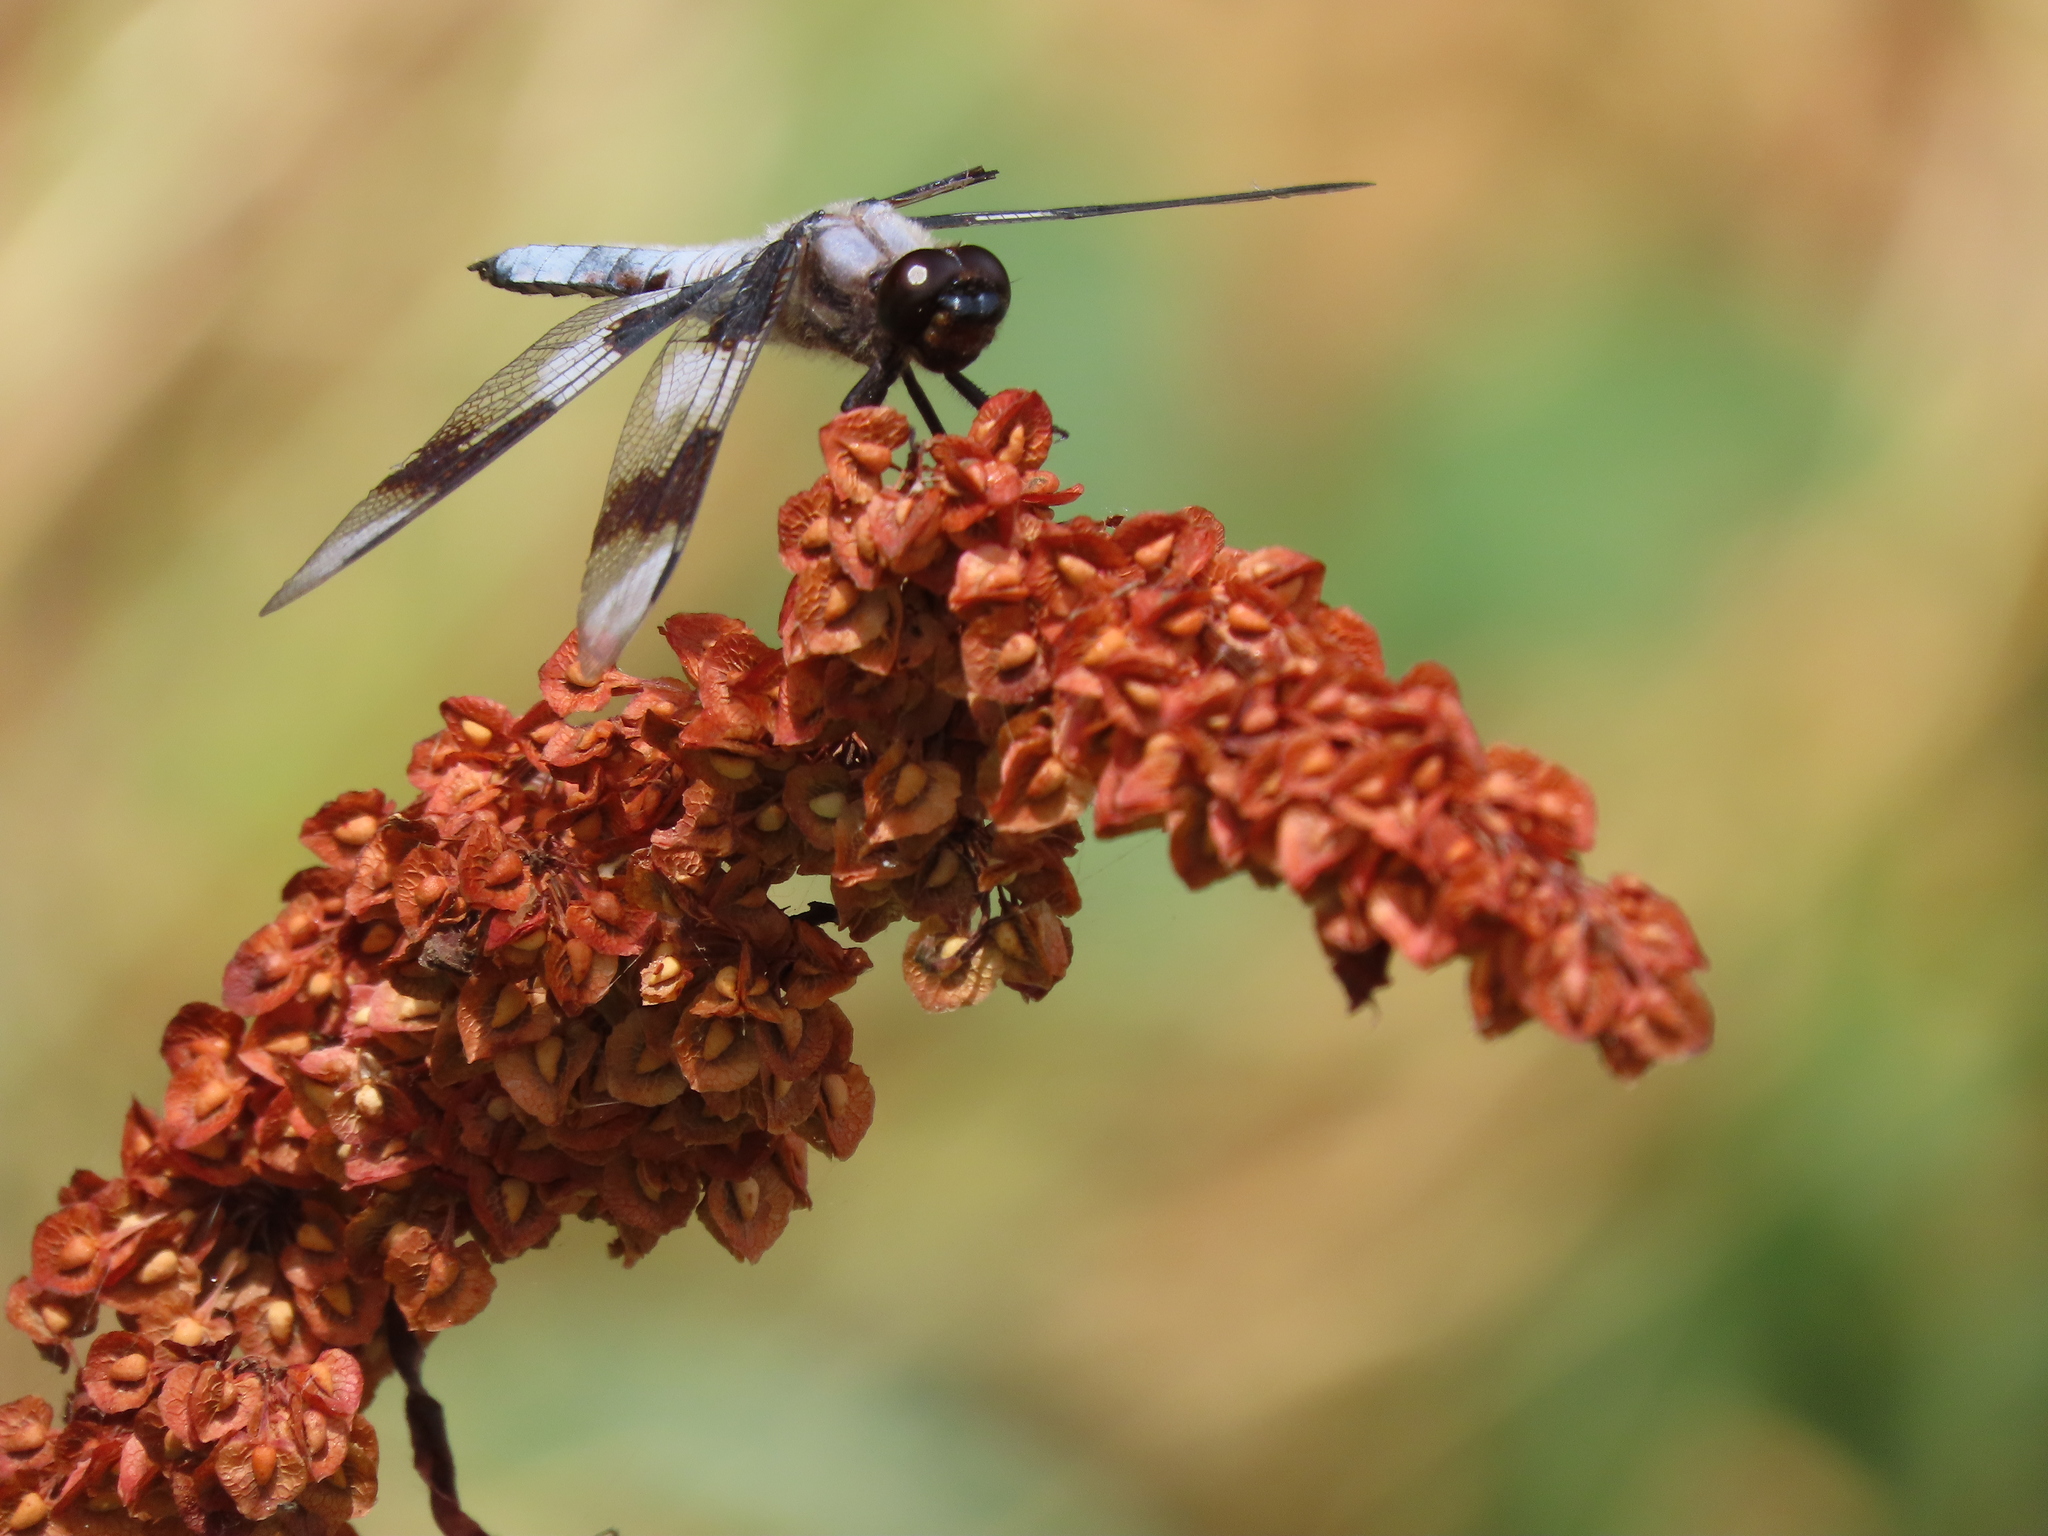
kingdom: Animalia
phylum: Arthropoda
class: Insecta
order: Odonata
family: Libellulidae
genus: Libellula
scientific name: Libellula forensis
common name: Eight-spotted skimmer
